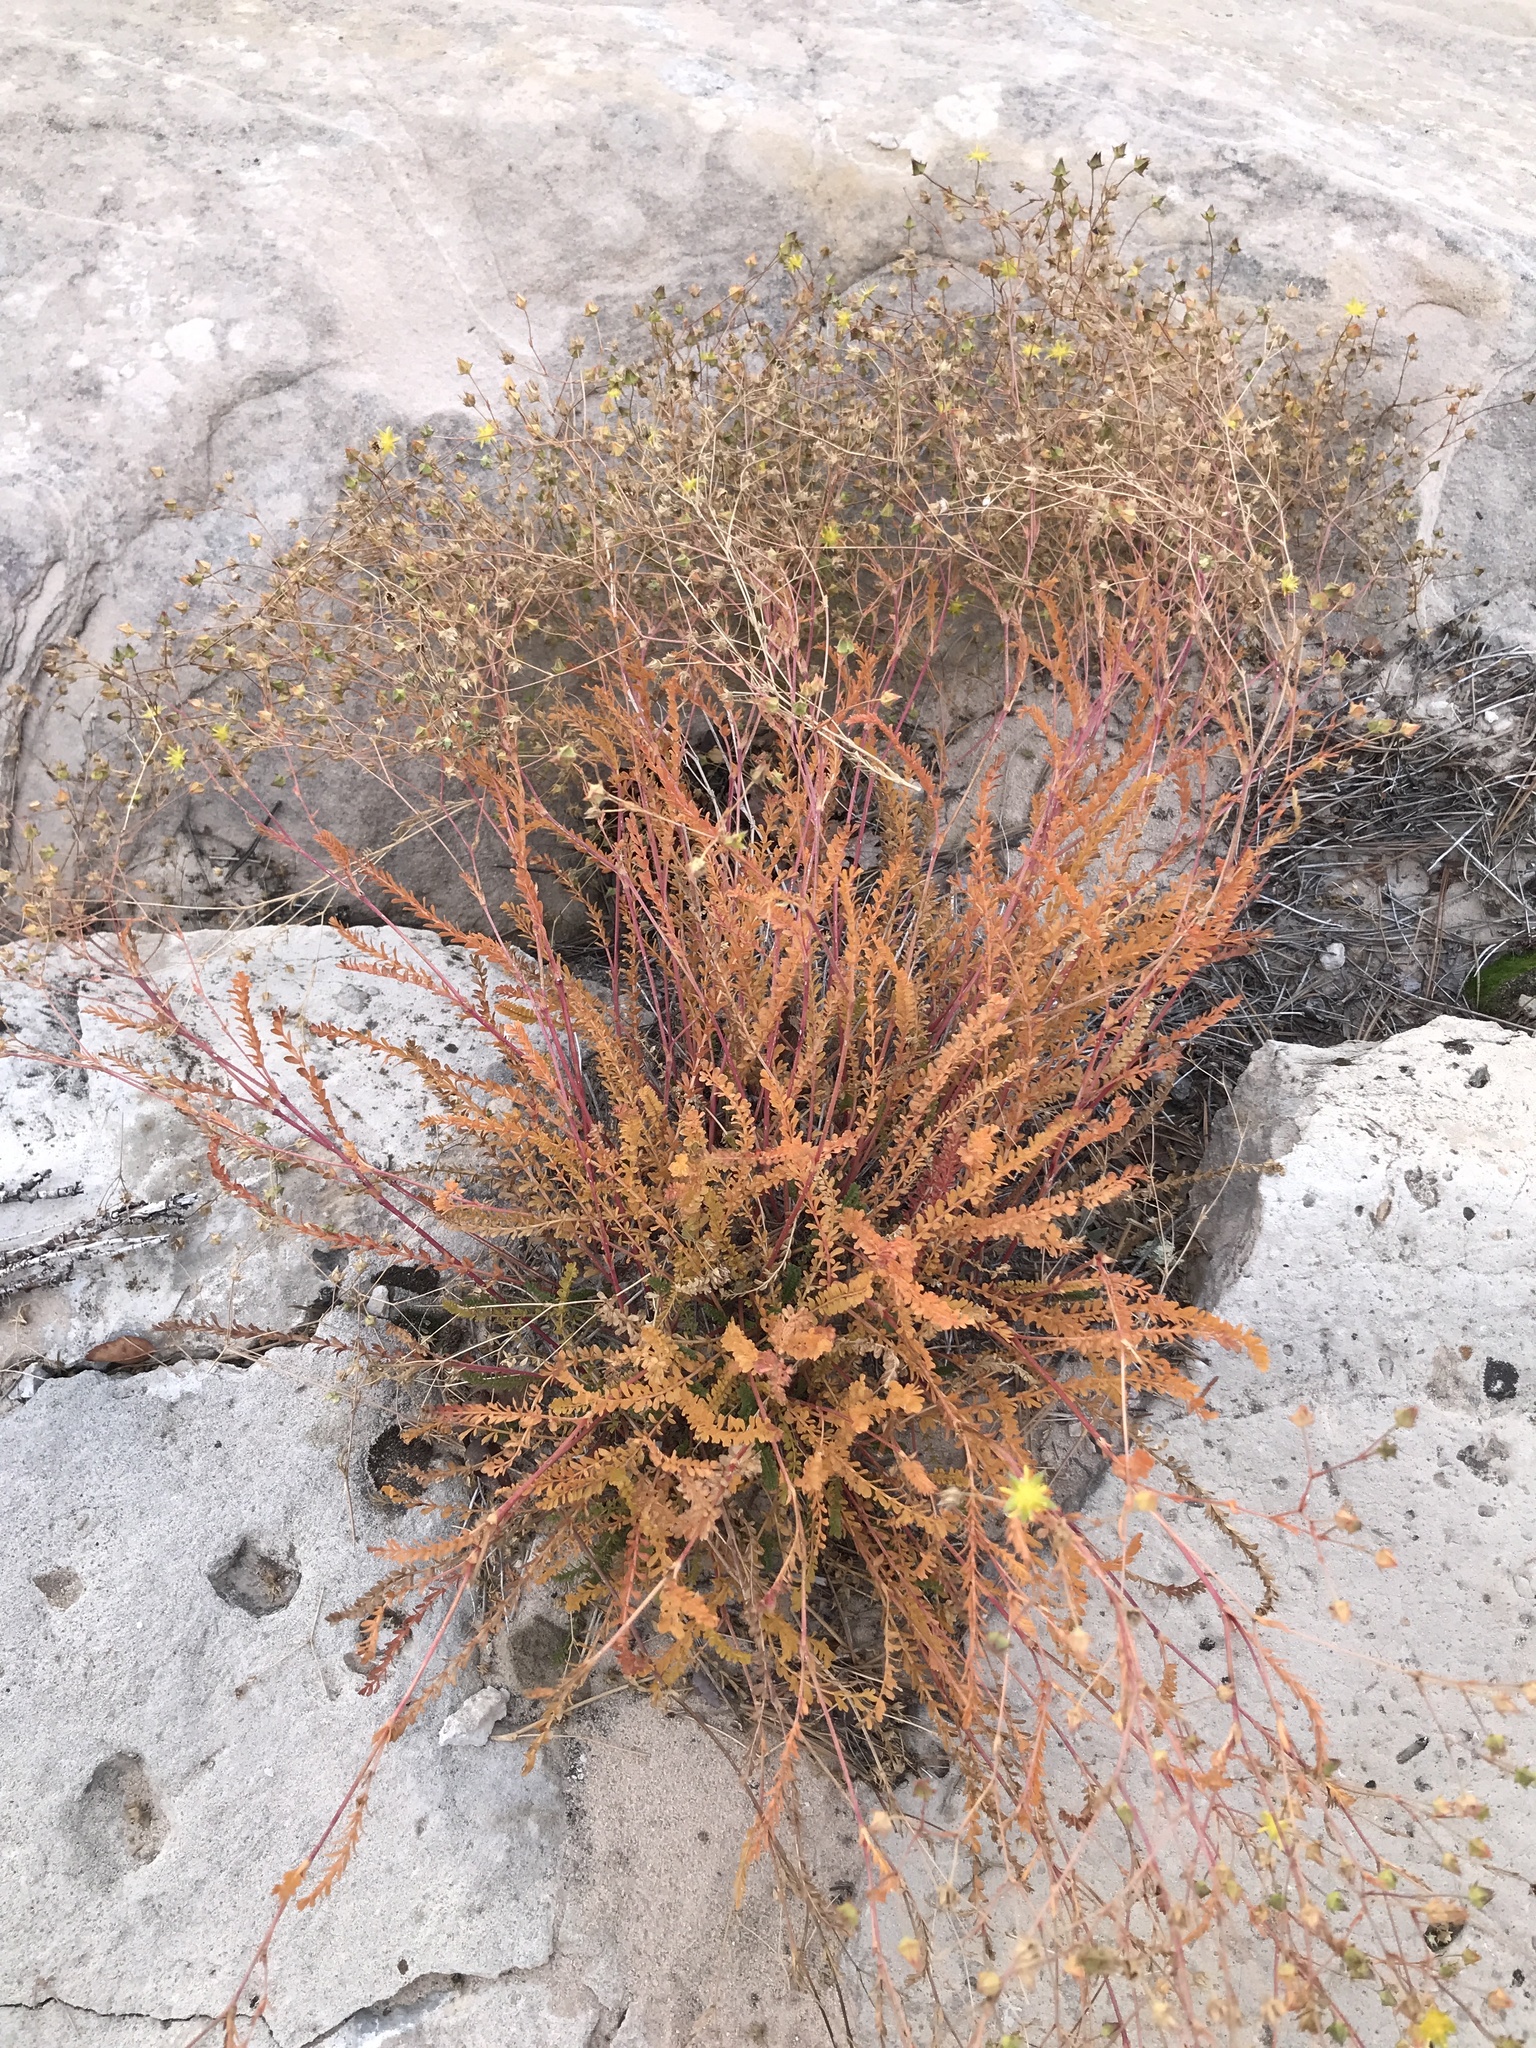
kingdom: Plantae
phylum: Tracheophyta
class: Magnoliopsida
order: Rosales
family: Rosaceae
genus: Potentilla
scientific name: Potentilla sabulosa
